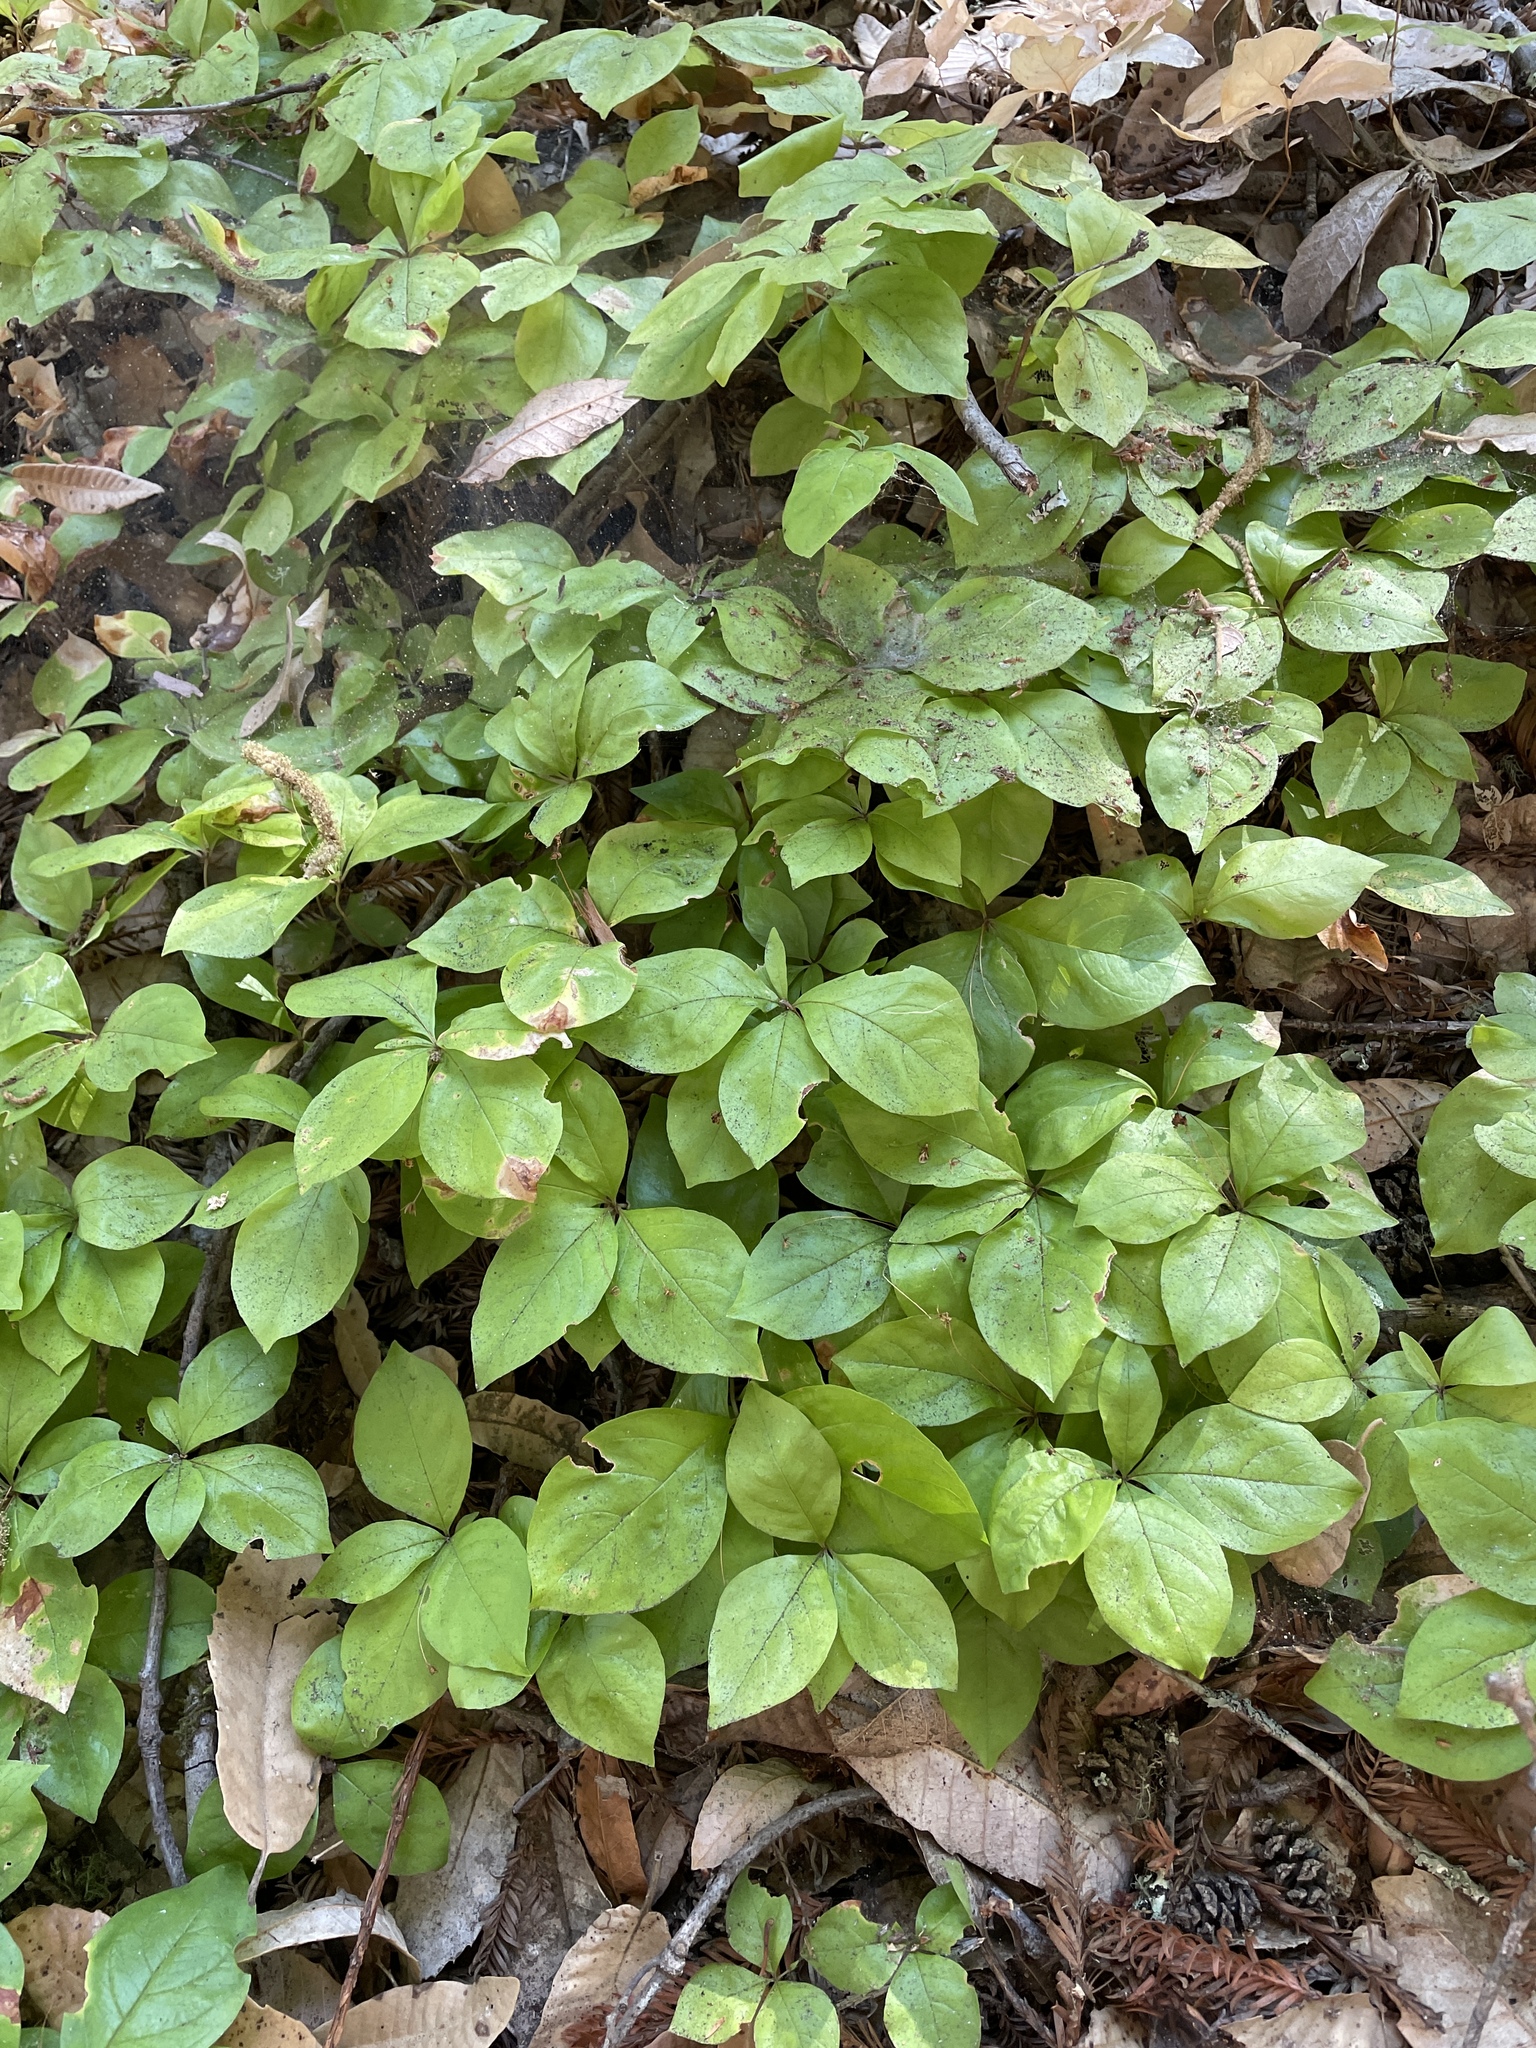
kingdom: Plantae
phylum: Tracheophyta
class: Magnoliopsida
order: Ericales
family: Primulaceae
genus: Lysimachia
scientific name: Lysimachia latifolia
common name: Pacific starflower
